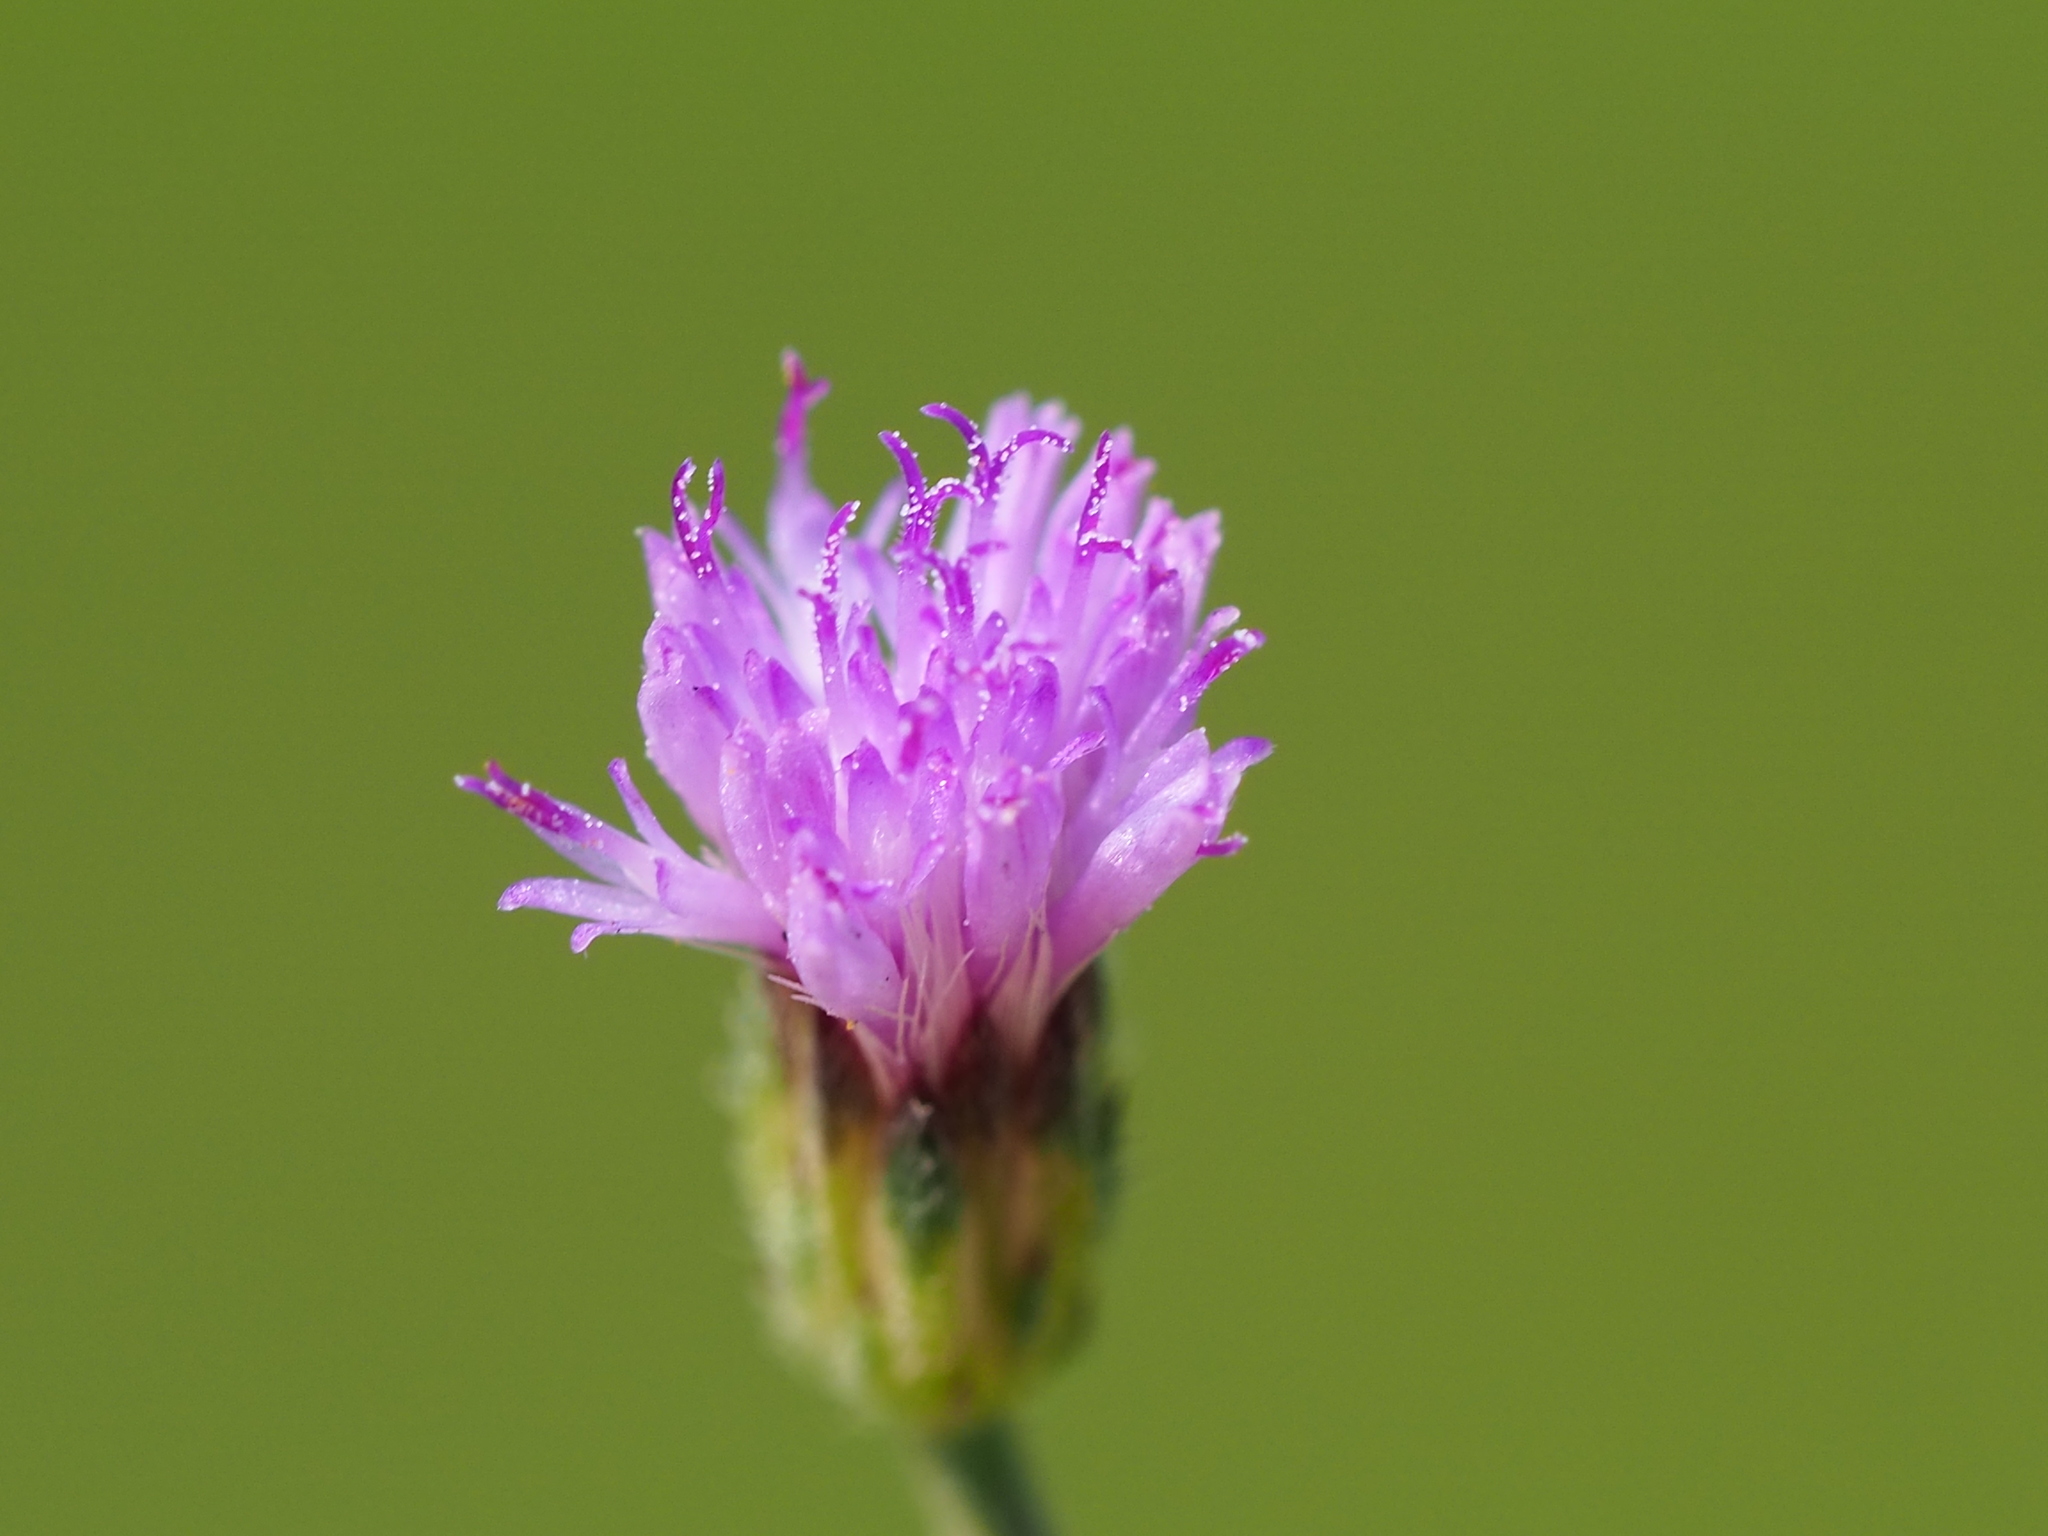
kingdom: Plantae
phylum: Tracheophyta
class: Magnoliopsida
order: Asterales
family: Asteraceae
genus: Cyanthillium
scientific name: Cyanthillium cinereum
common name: Little ironweed
